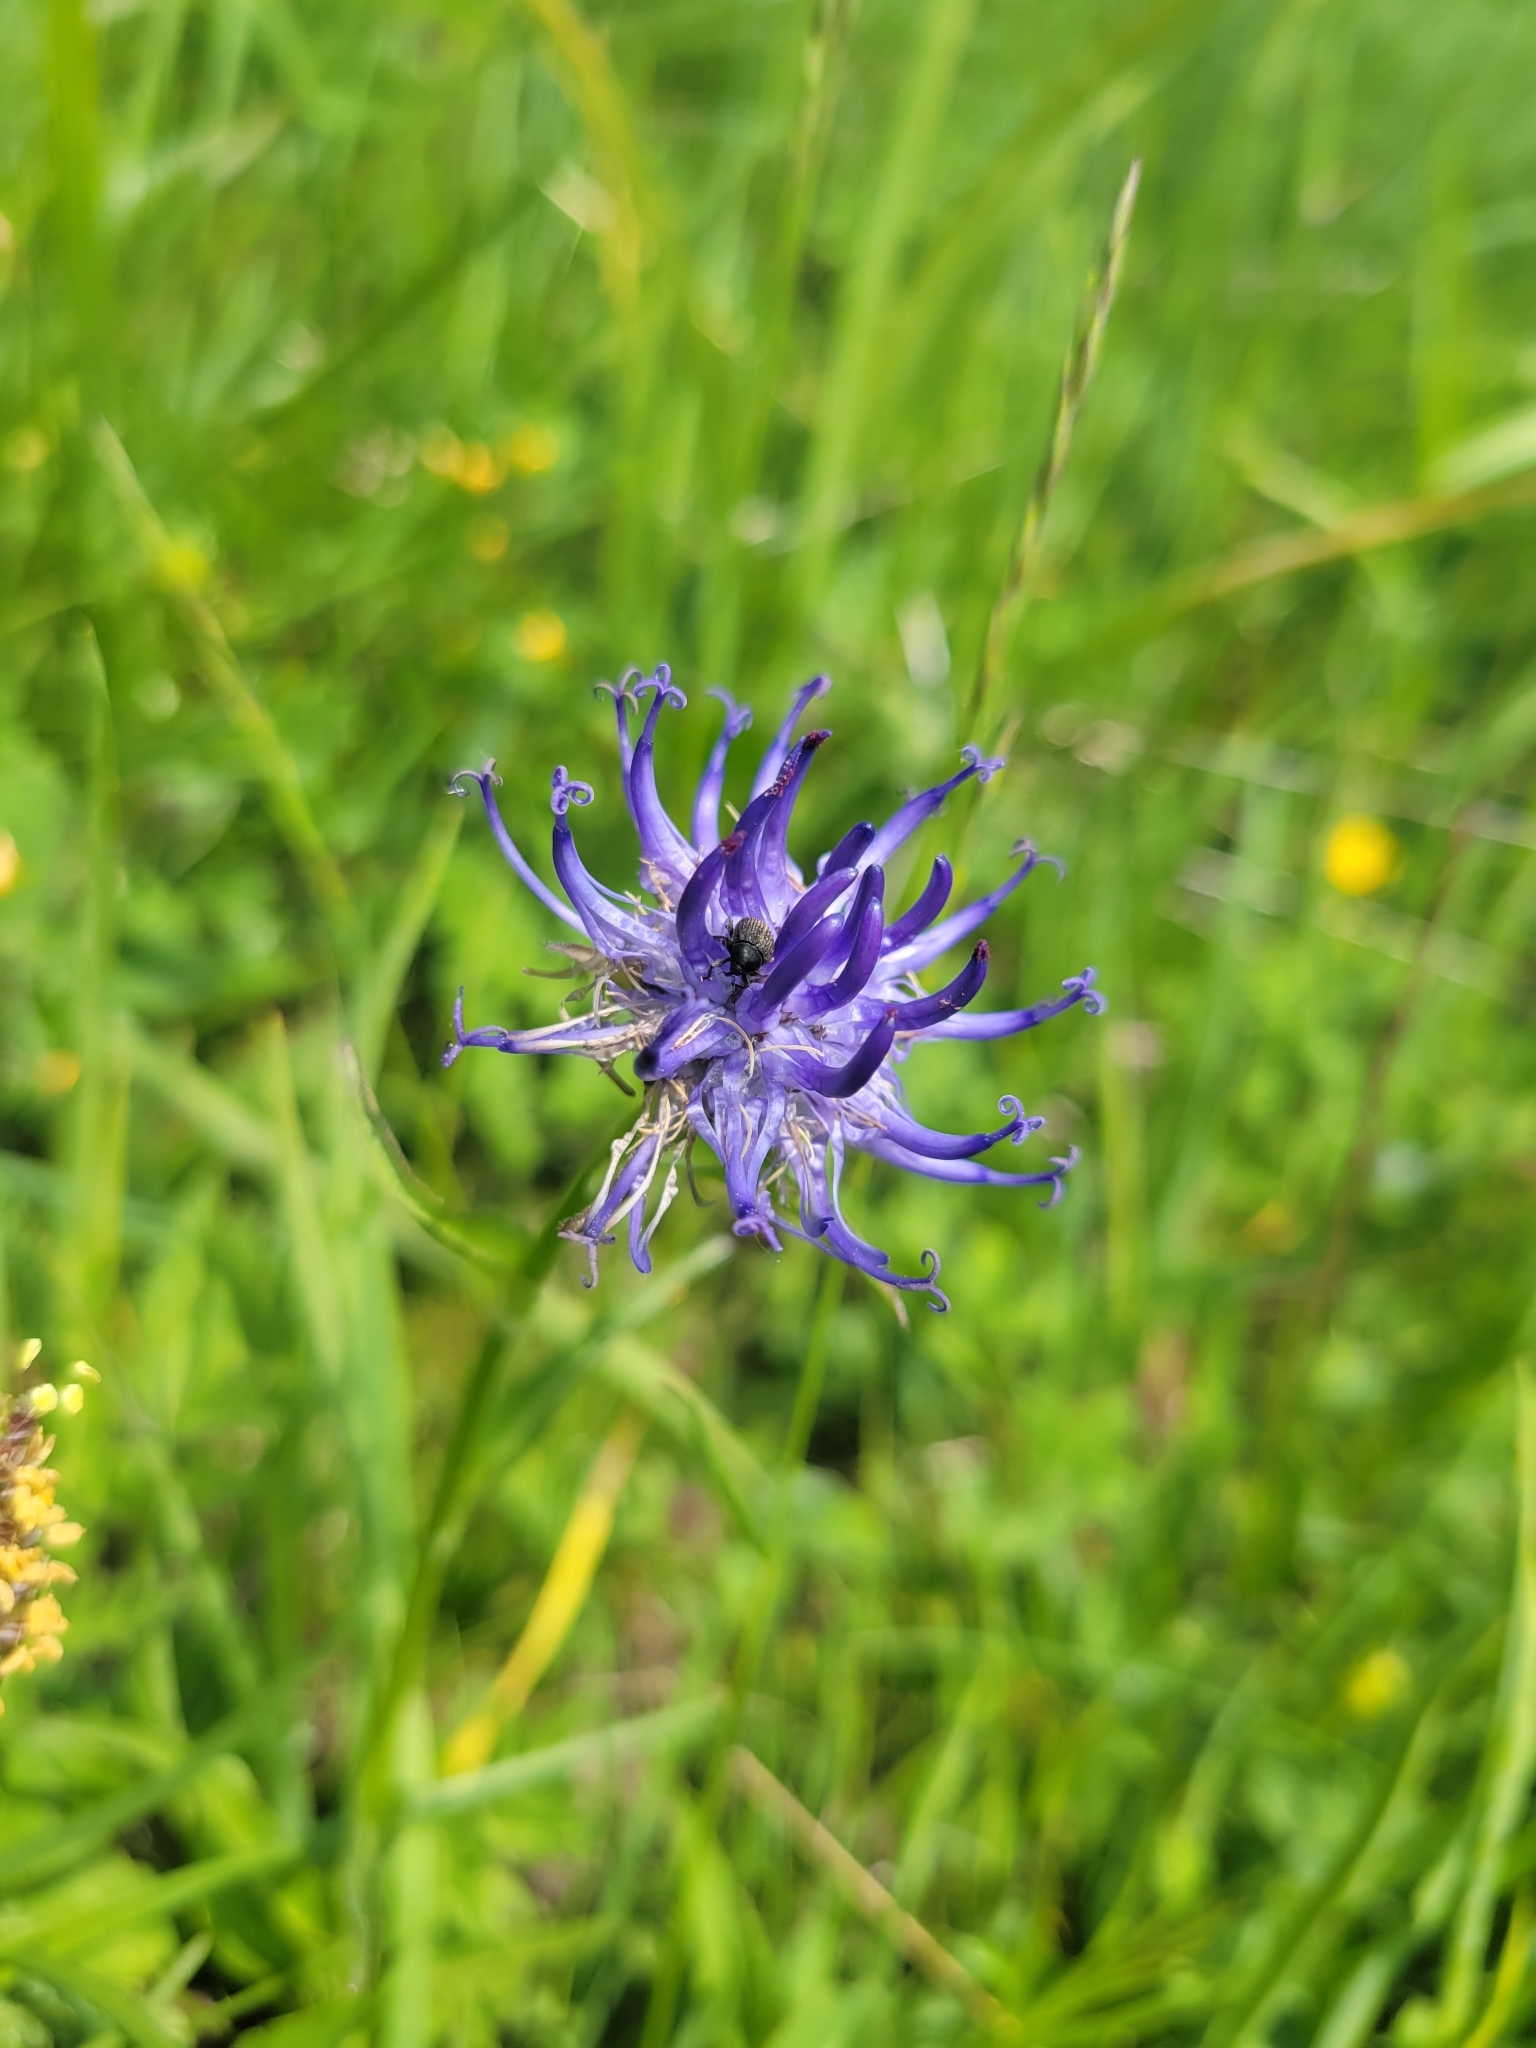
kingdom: Plantae
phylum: Tracheophyta
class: Magnoliopsida
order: Asterales
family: Campanulaceae
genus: Phyteuma
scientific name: Phyteuma orbiculare
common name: Round-headed rampion
